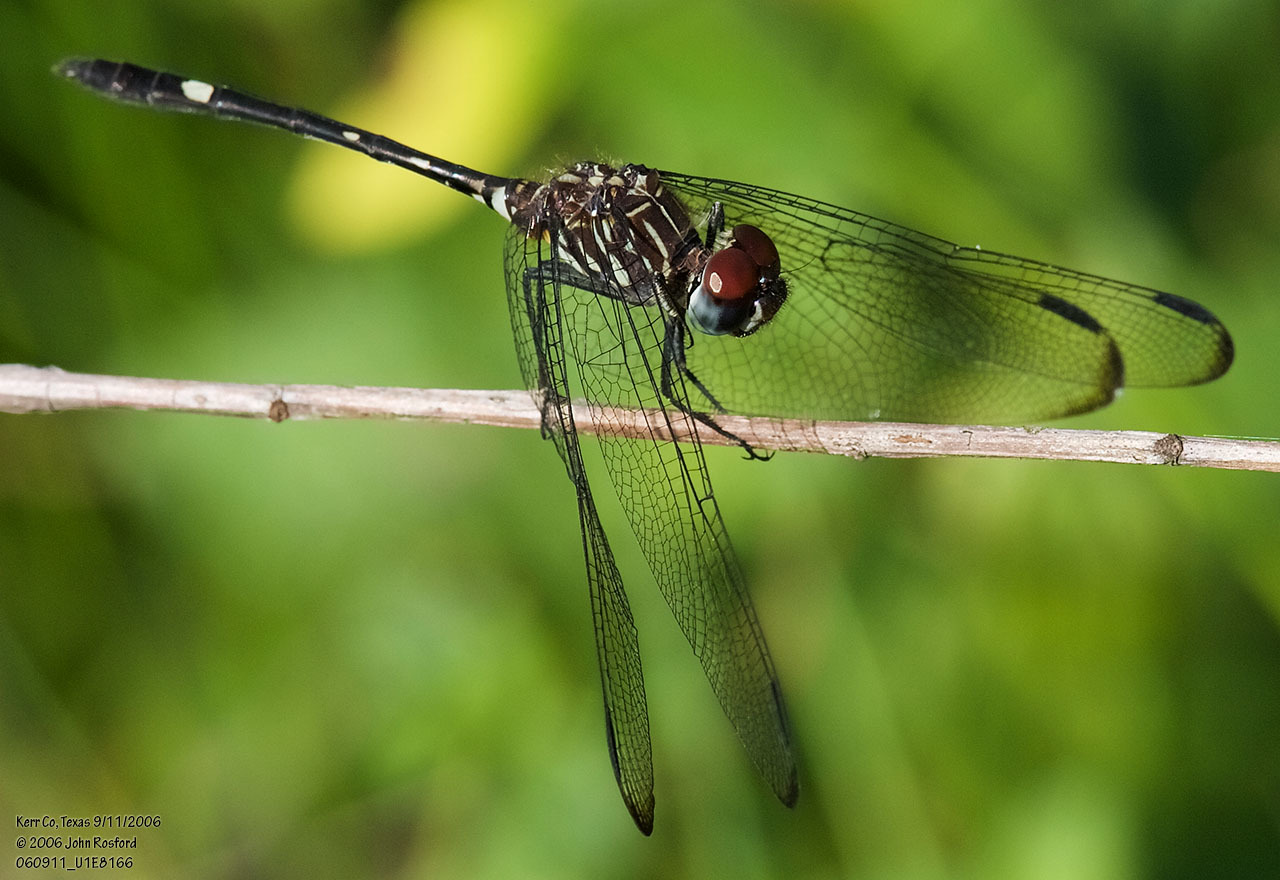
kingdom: Animalia
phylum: Arthropoda
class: Insecta
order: Odonata
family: Libellulidae
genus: Dythemis
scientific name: Dythemis velox
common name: Swift setwing
